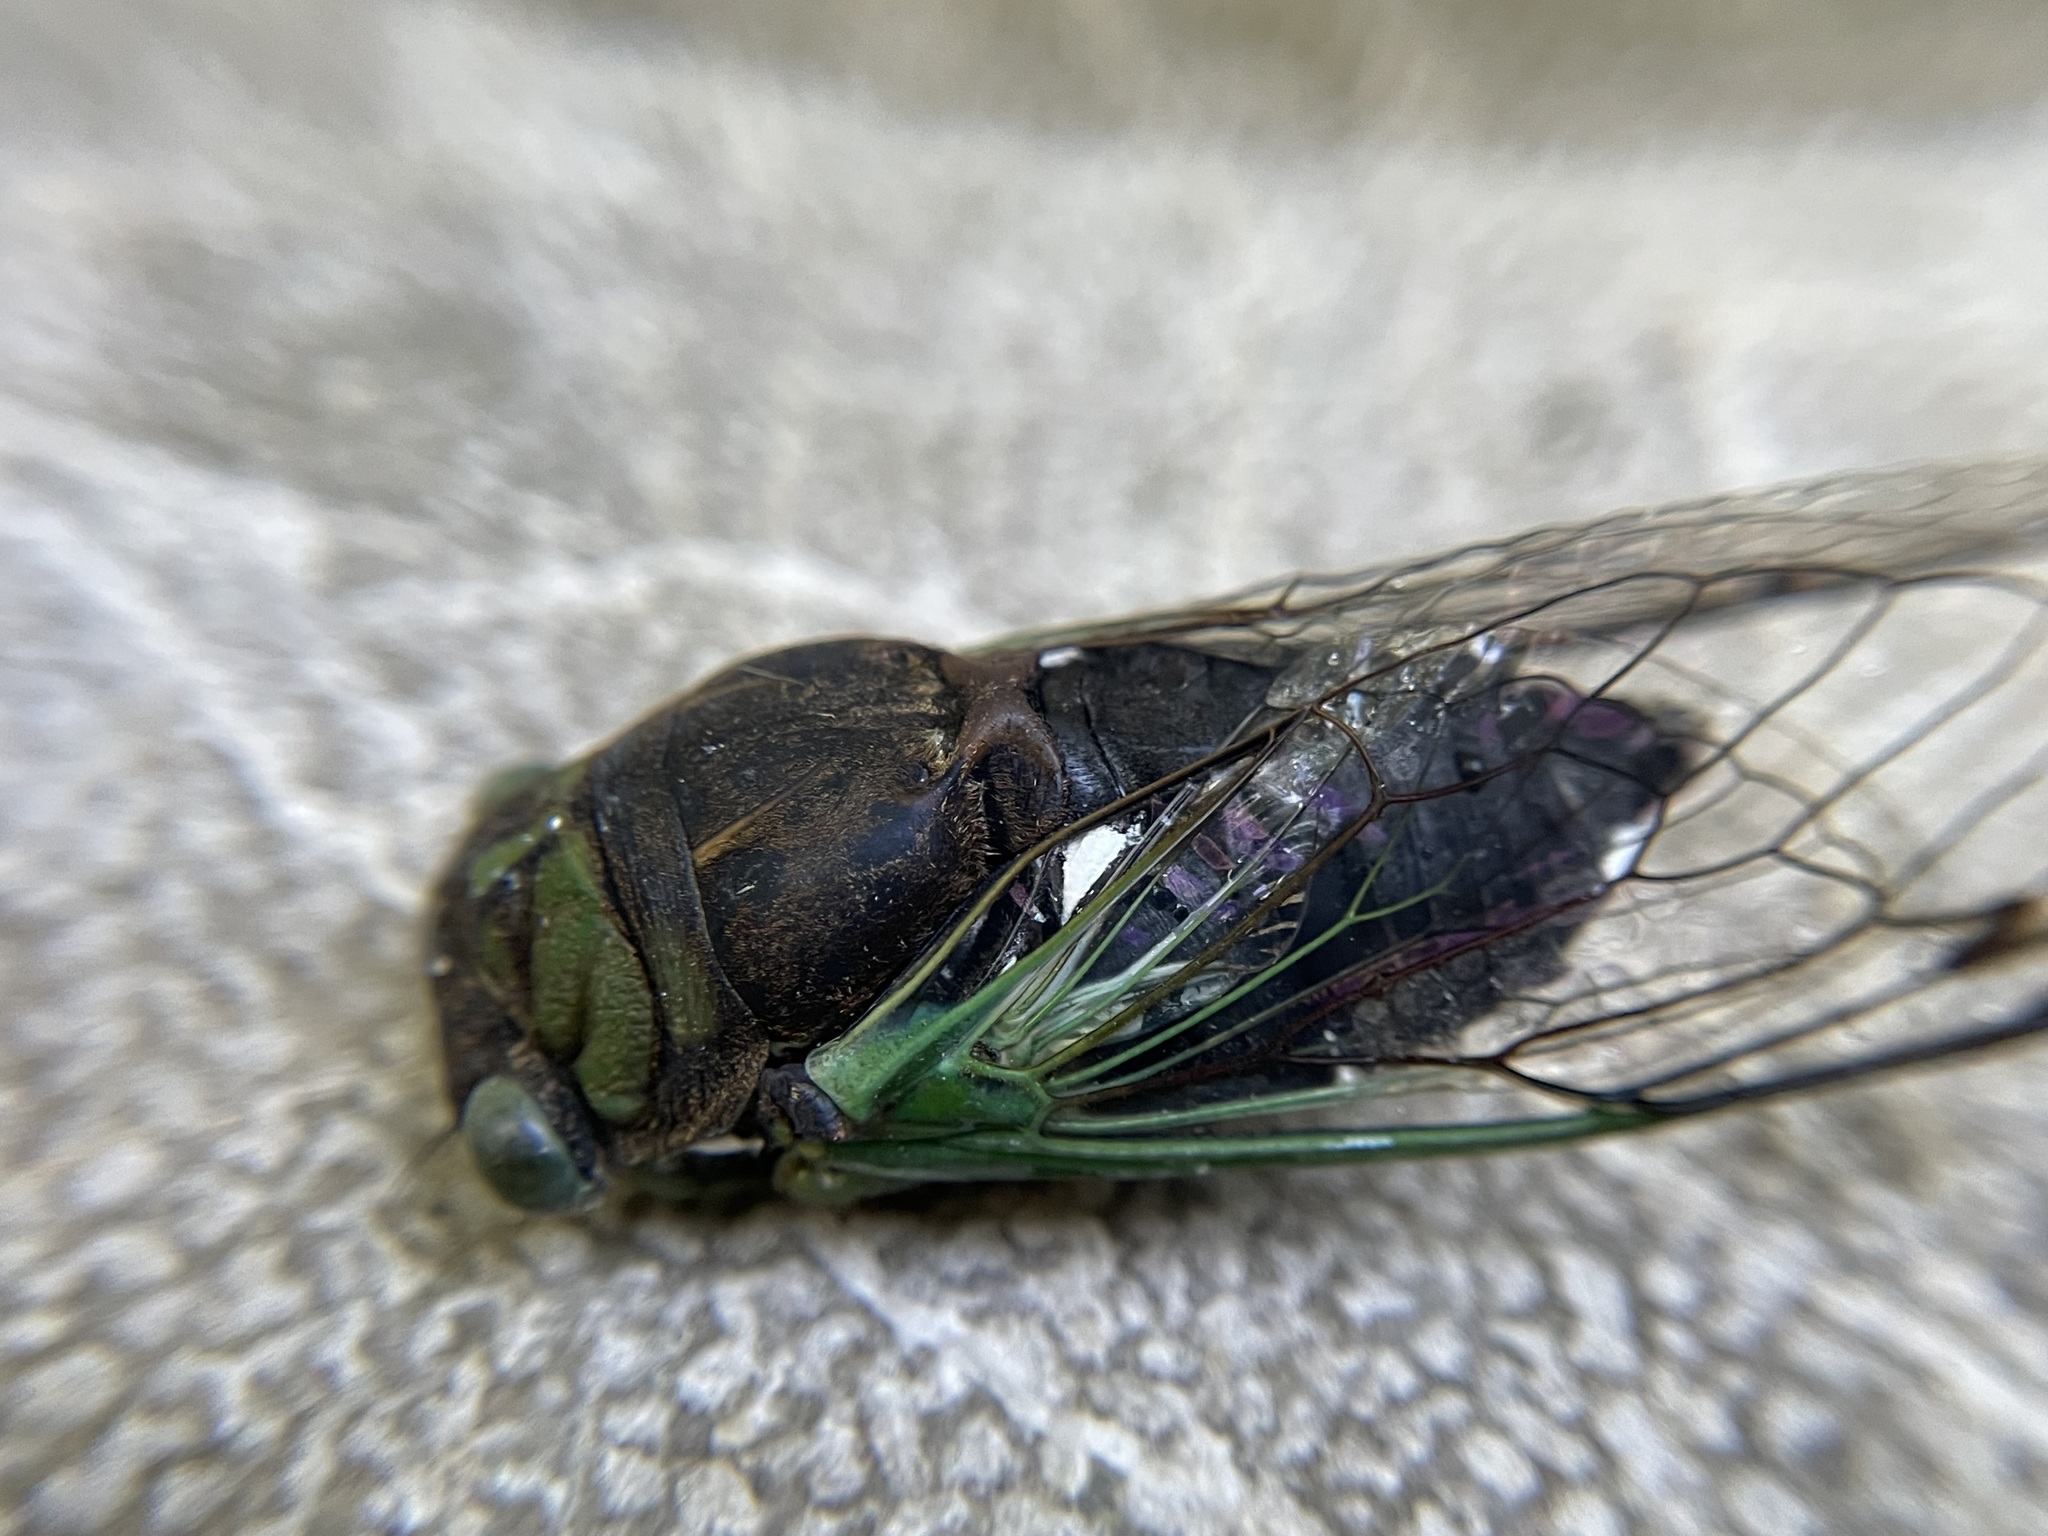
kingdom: Animalia
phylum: Arthropoda
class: Insecta
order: Hemiptera
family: Cicadidae
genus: Neotibicen
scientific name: Neotibicen tibicen
